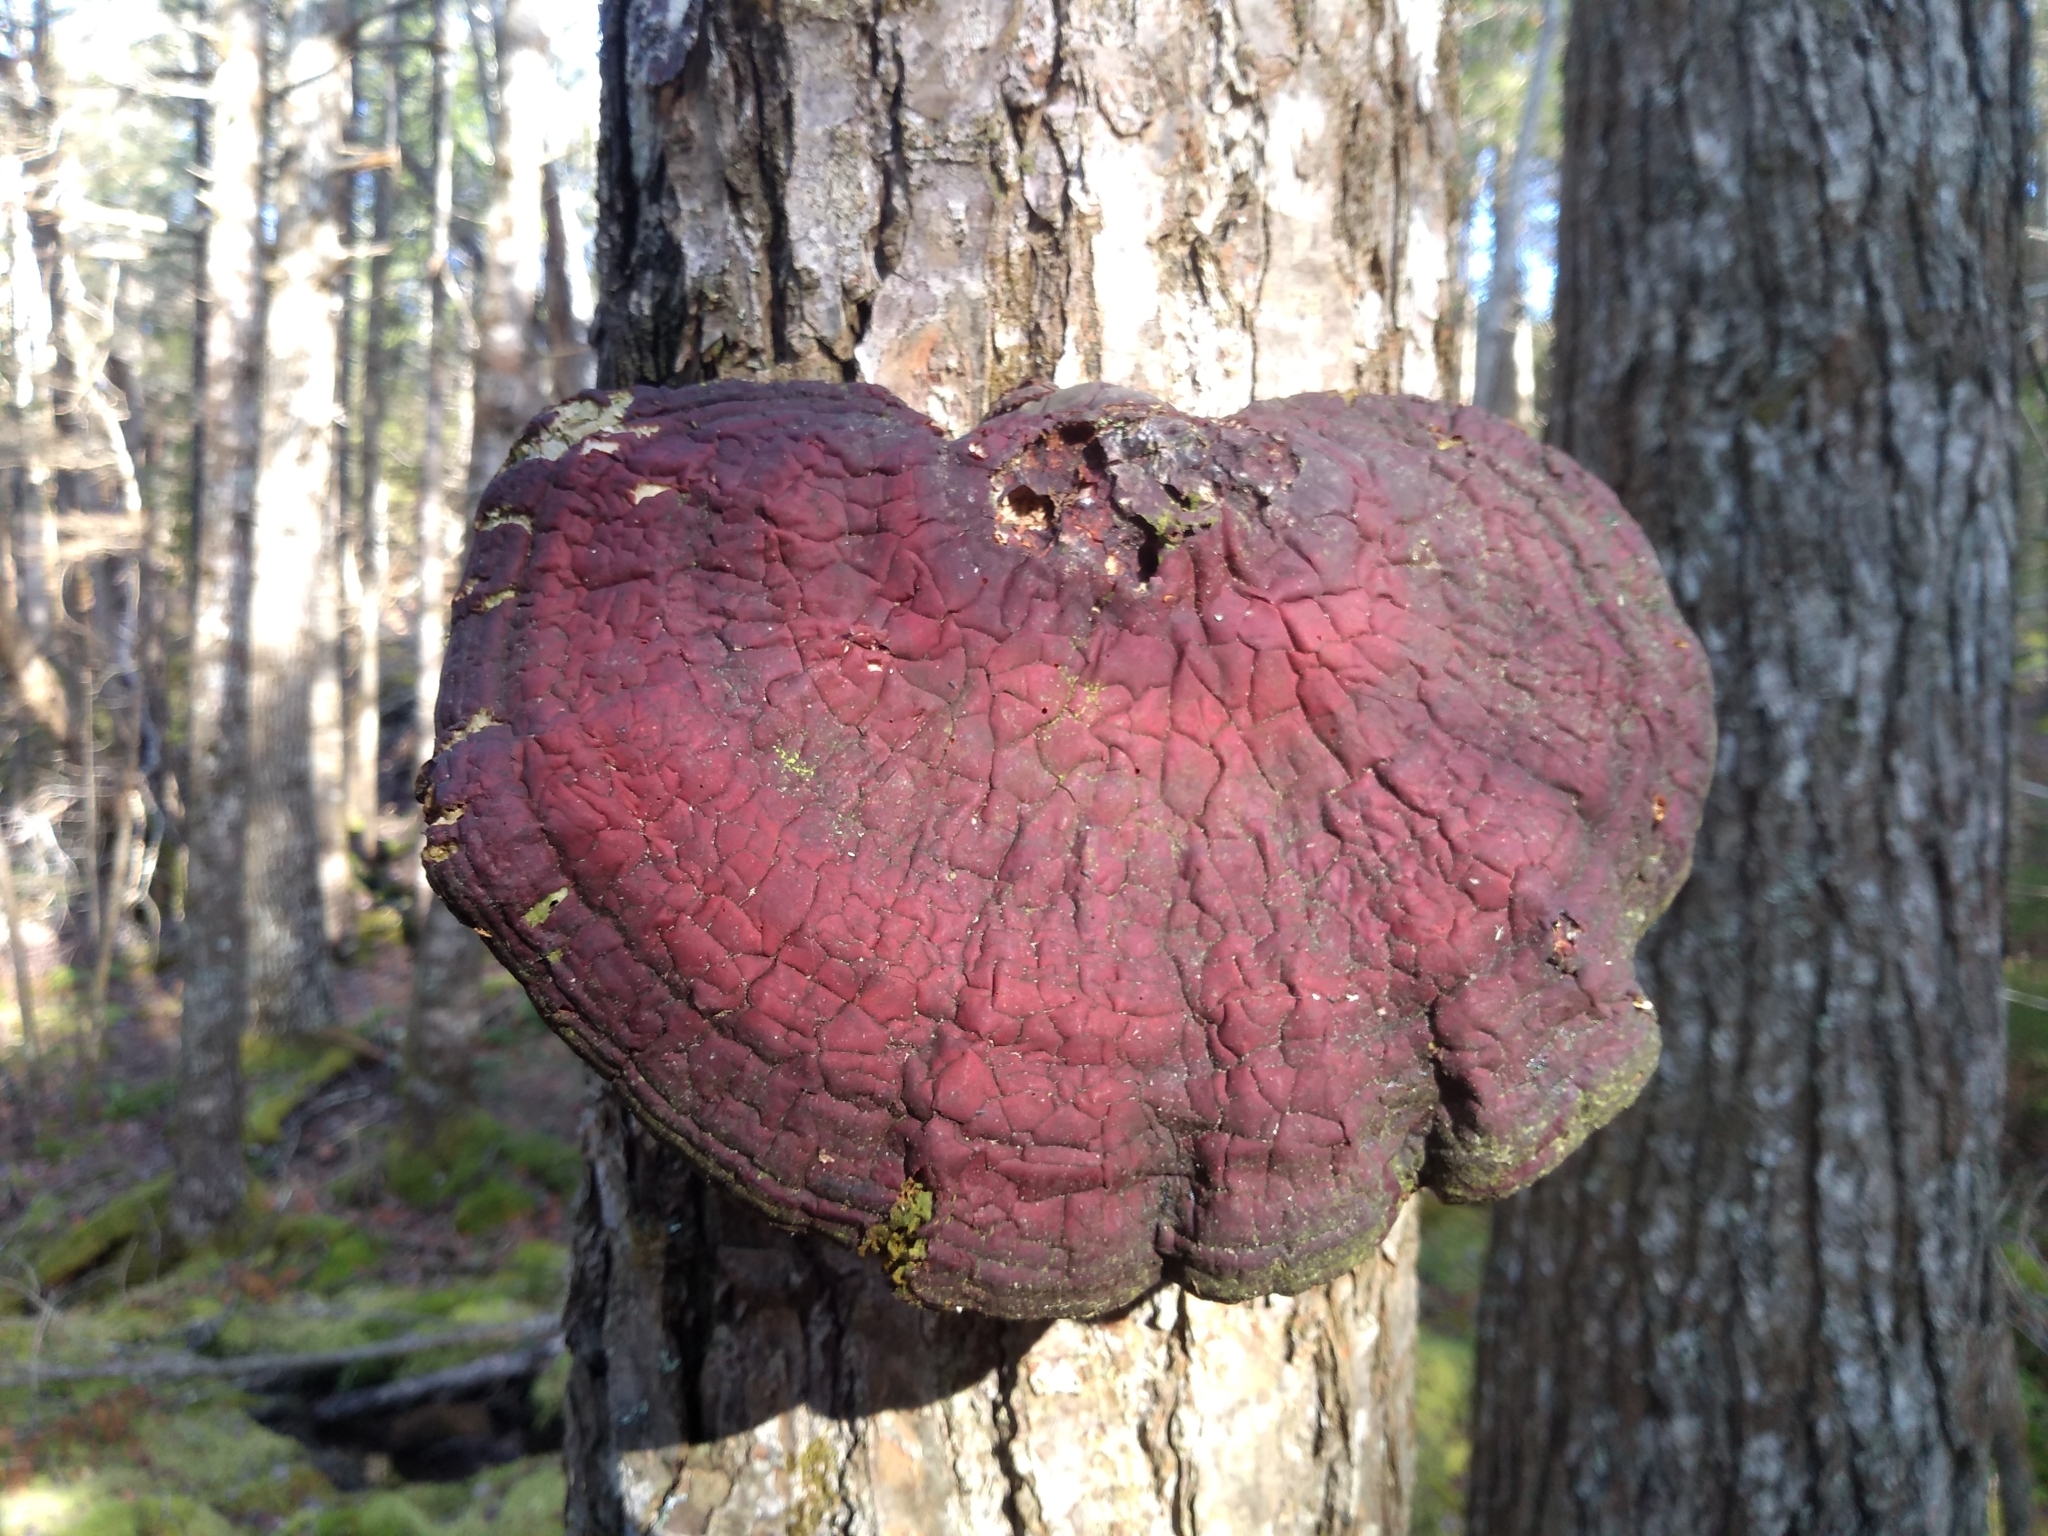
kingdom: Fungi
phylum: Basidiomycota
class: Agaricomycetes
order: Polyporales
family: Polyporaceae
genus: Ganoderma
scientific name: Ganoderma tsugae
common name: Hemlock varnish shelf
